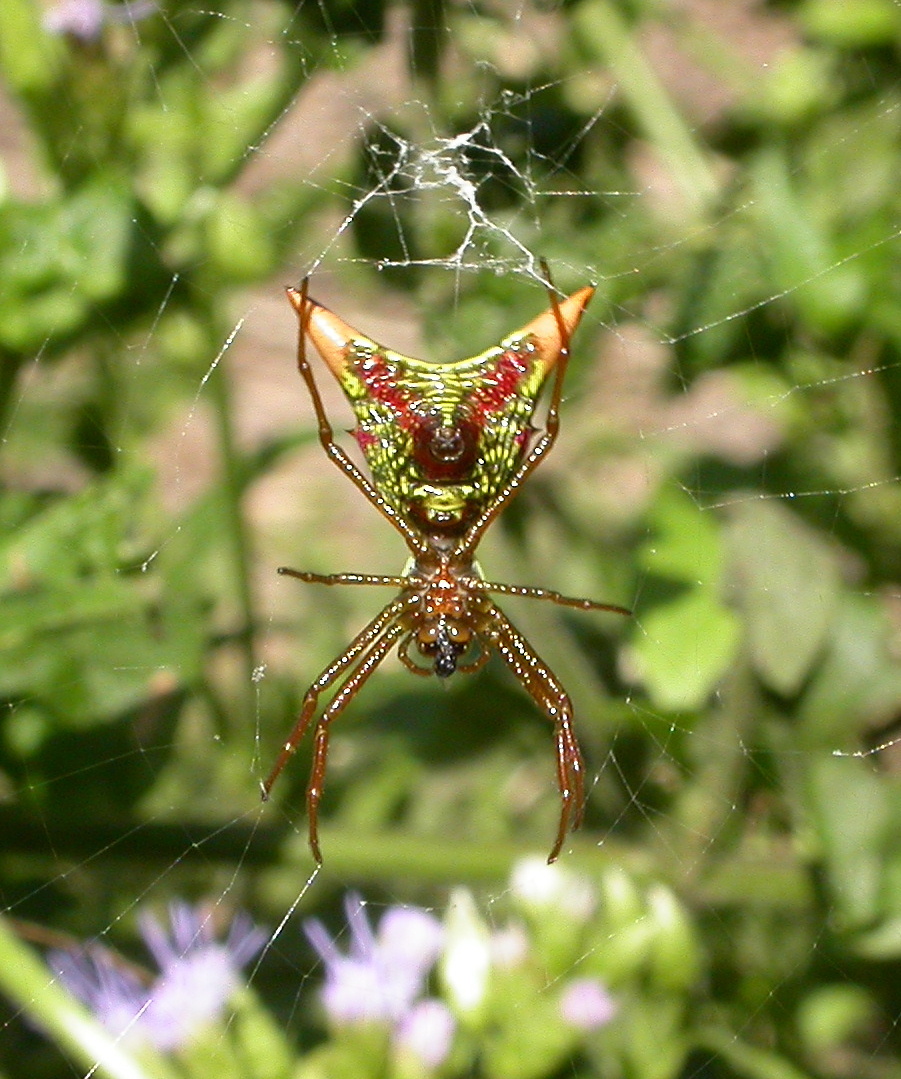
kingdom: Animalia
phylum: Arthropoda
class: Arachnida
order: Araneae
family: Araneidae
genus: Micrathena
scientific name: Micrathena sagittata
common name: Orb weavers
